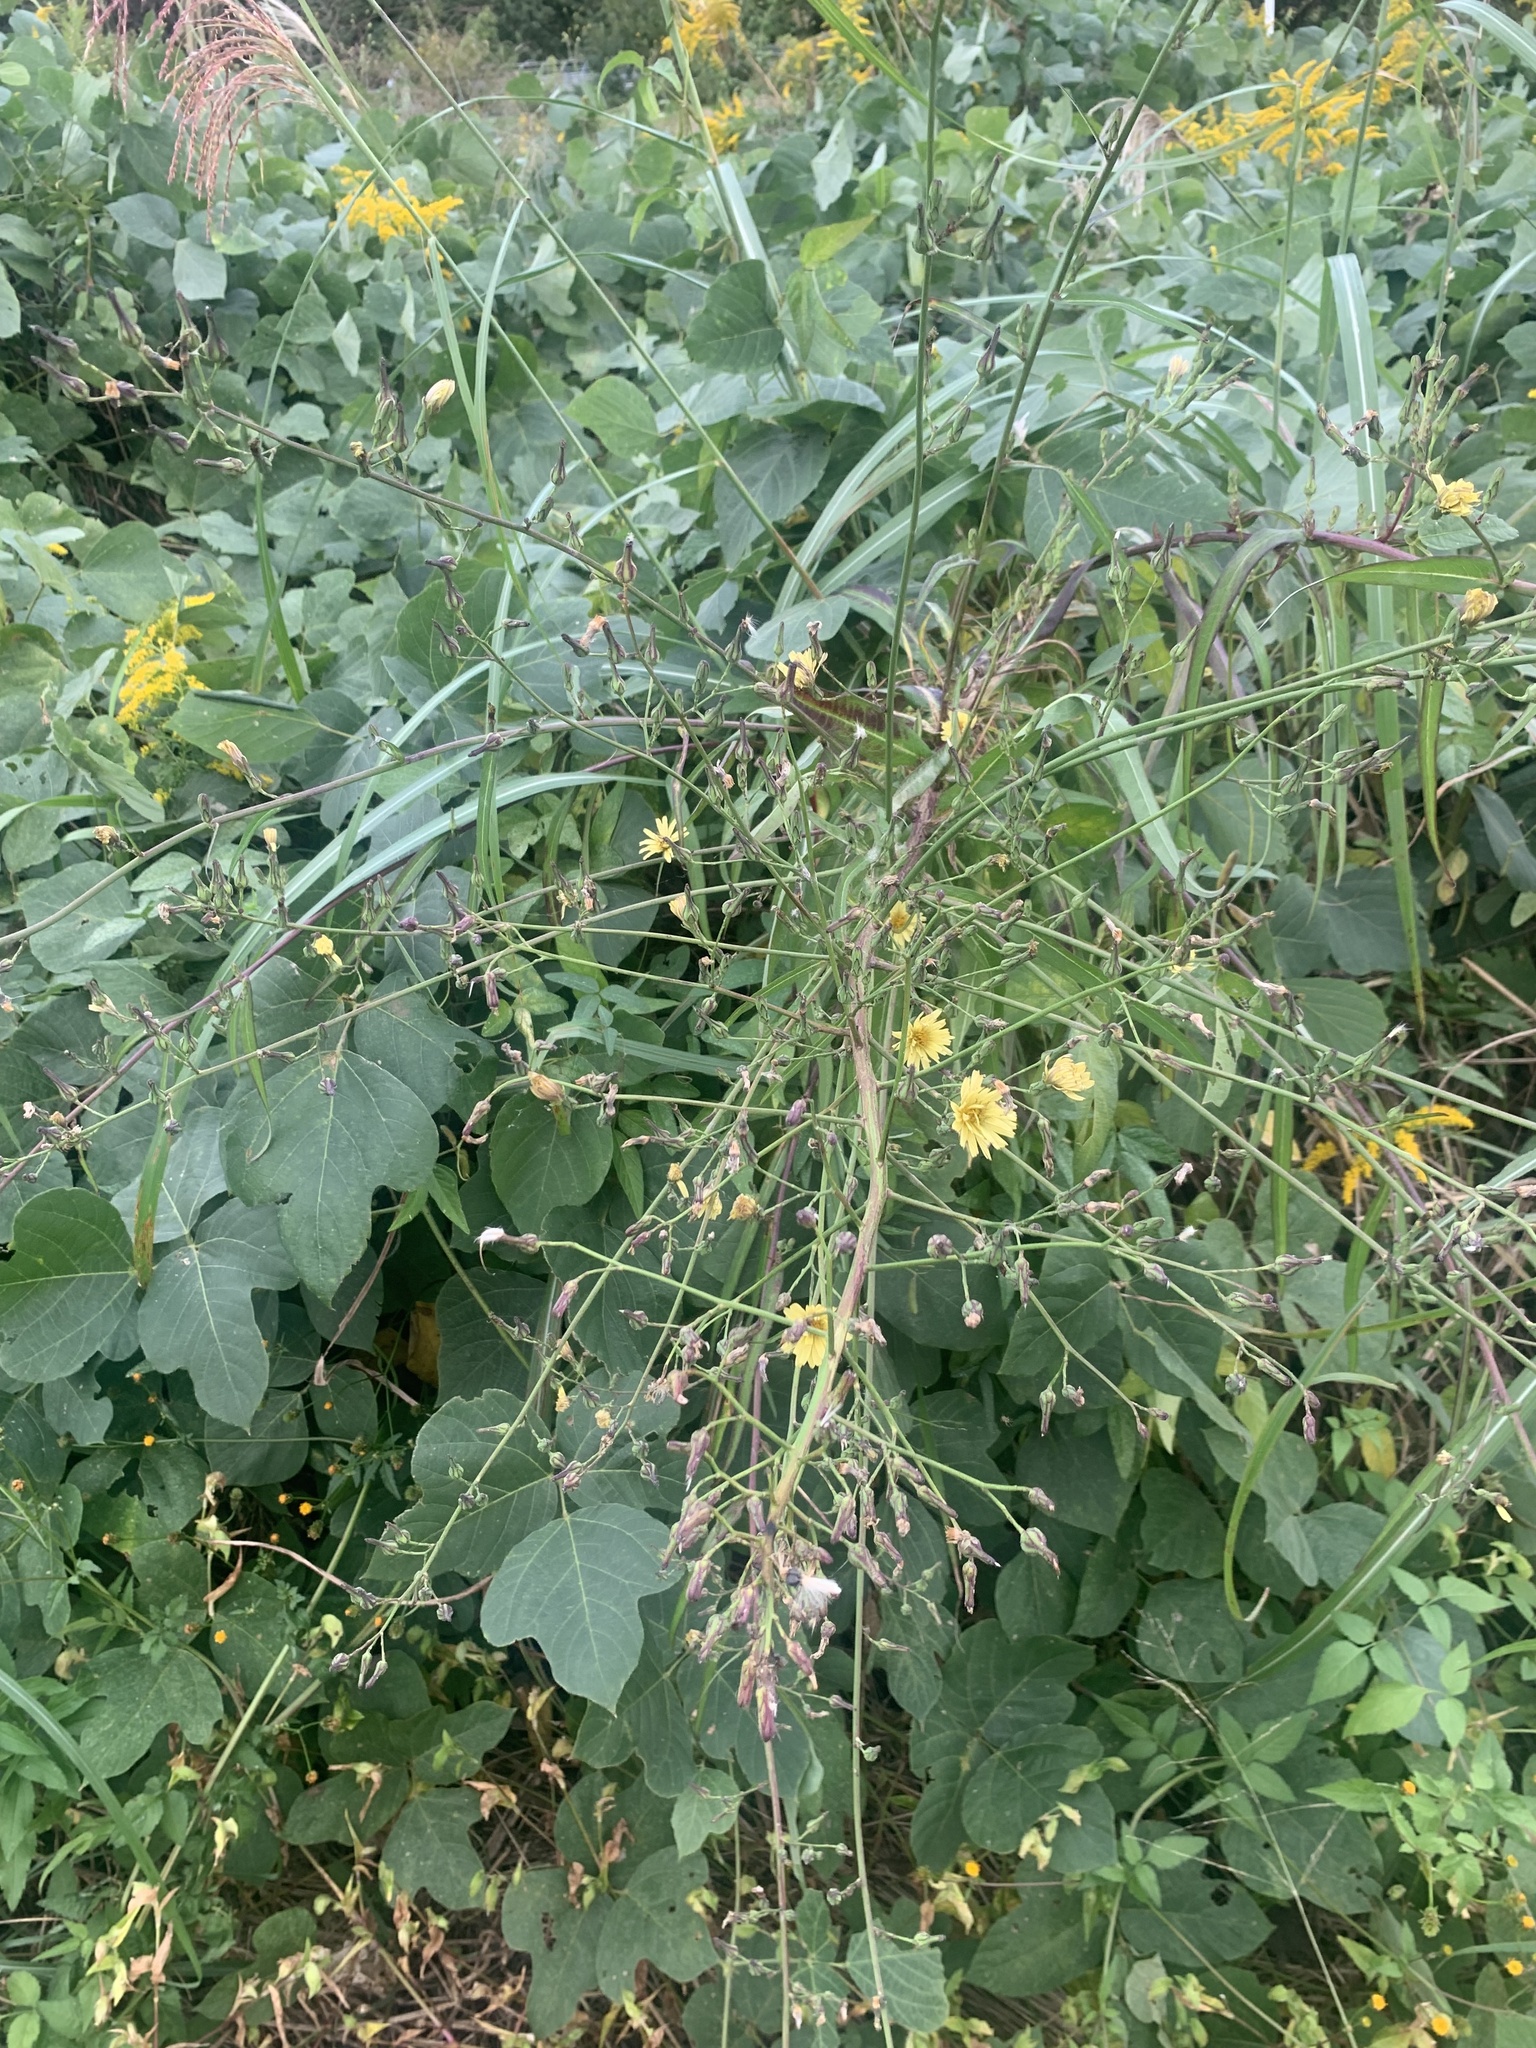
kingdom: Plantae
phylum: Tracheophyta
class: Magnoliopsida
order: Asterales
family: Asteraceae
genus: Lactuca
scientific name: Lactuca indica
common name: Wild lettuce
